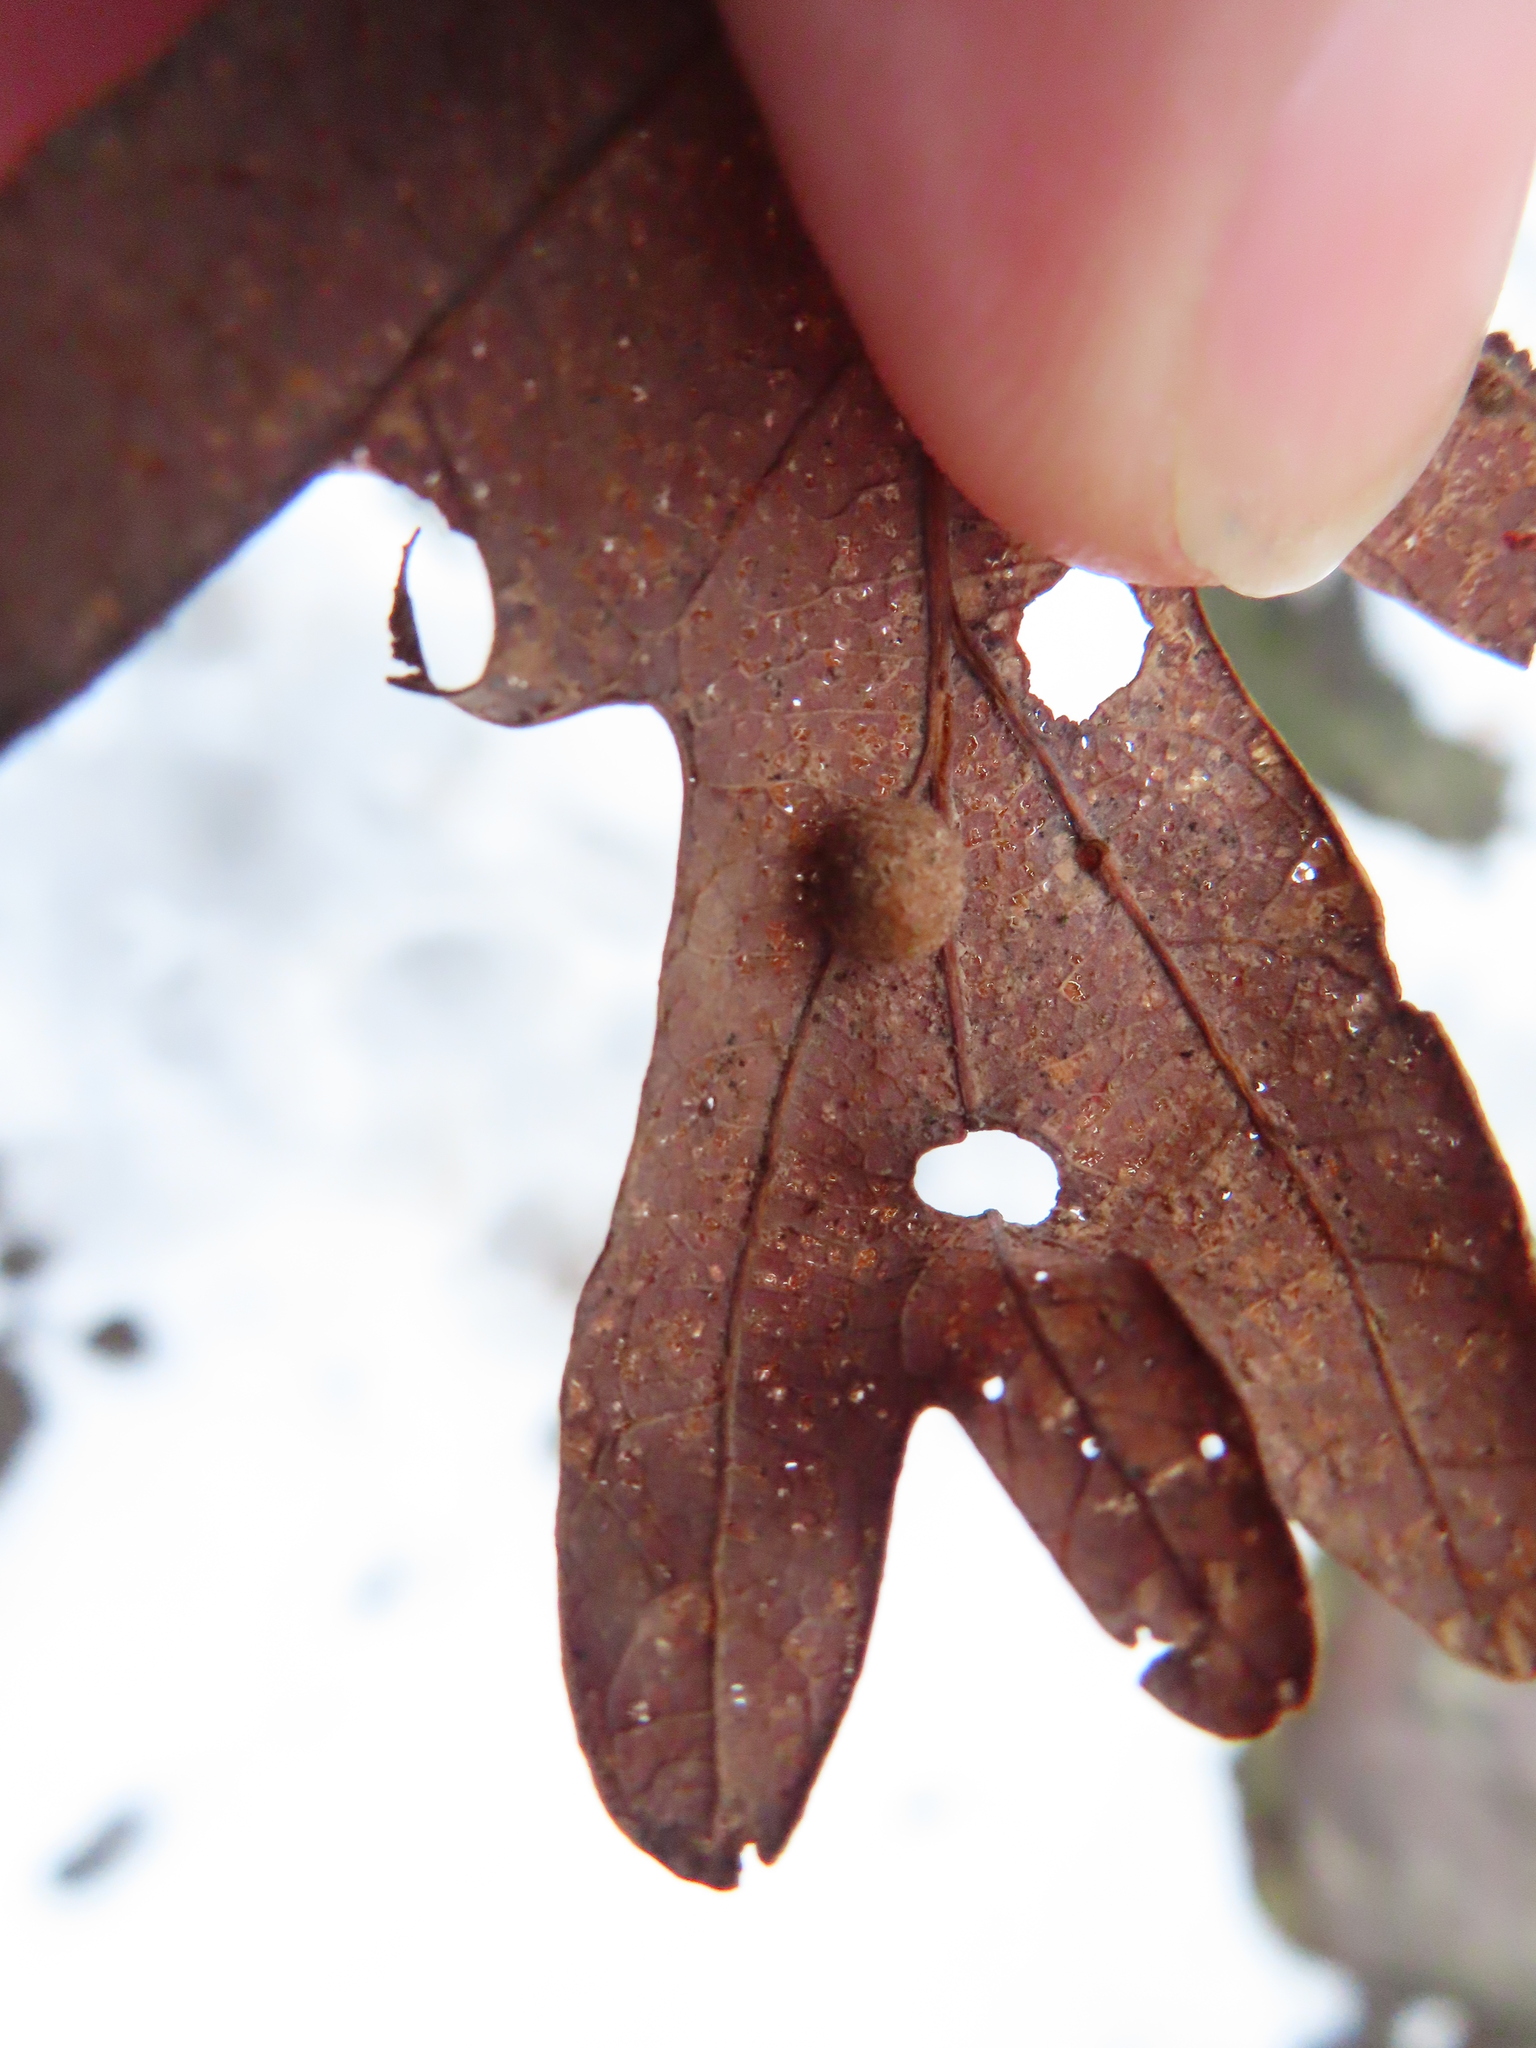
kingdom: Animalia
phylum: Arthropoda
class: Insecta
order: Hymenoptera
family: Cynipidae
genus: Philonix
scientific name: Philonix fulvicollis
